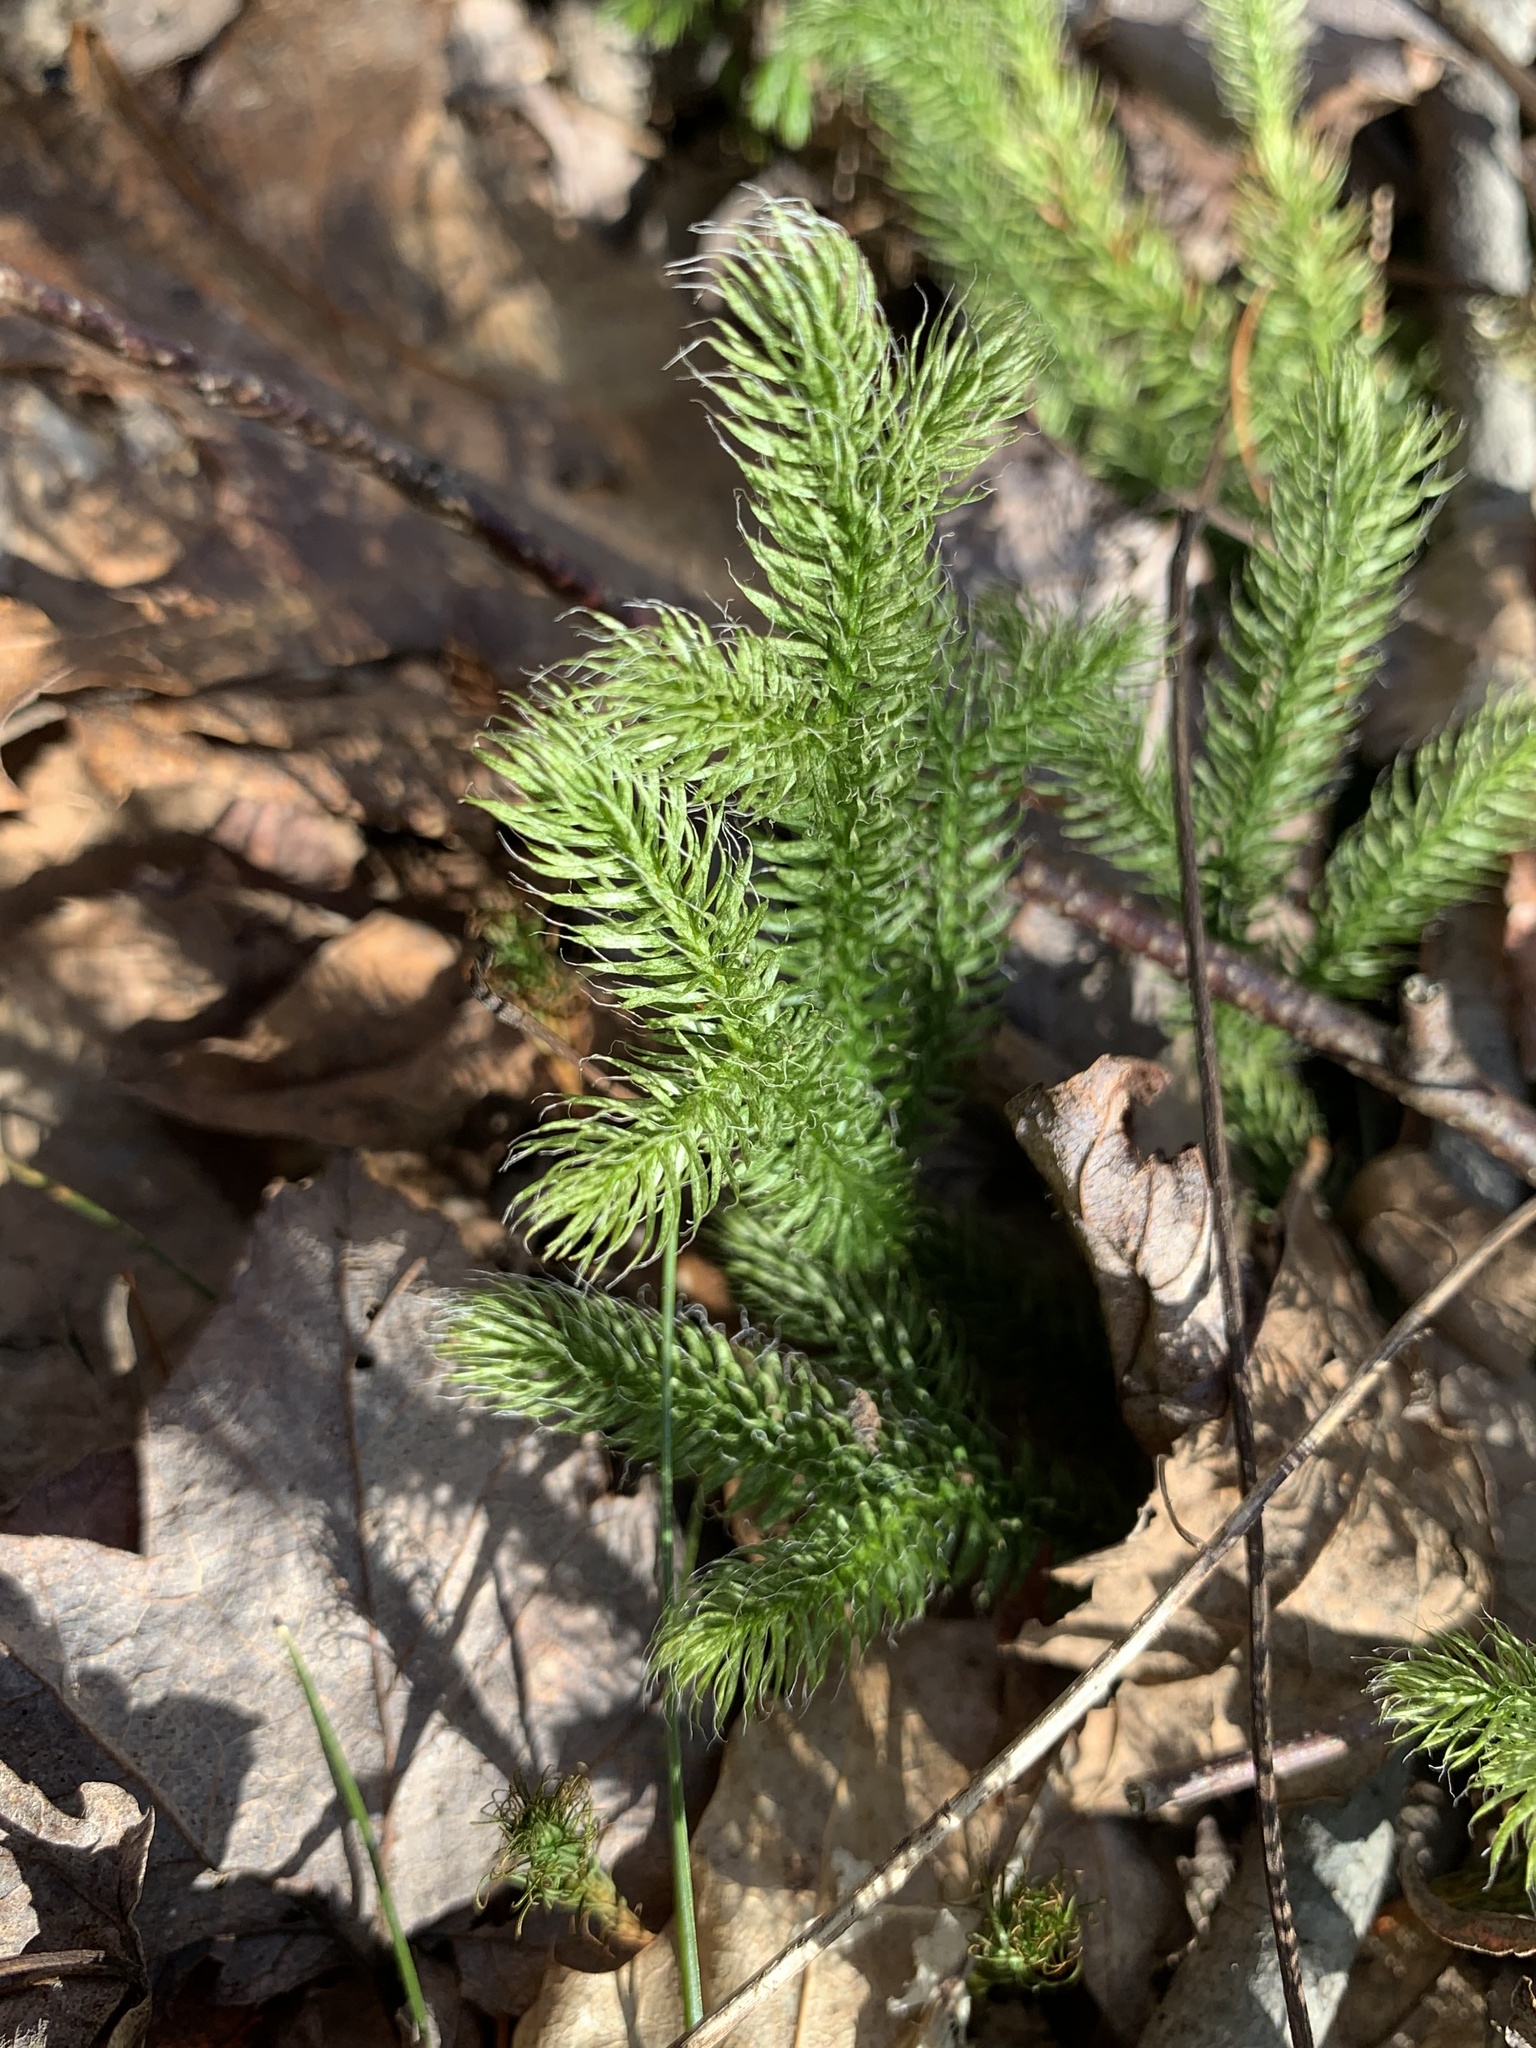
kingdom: Plantae
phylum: Tracheophyta
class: Lycopodiopsida
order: Lycopodiales
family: Lycopodiaceae
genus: Lycopodium
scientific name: Lycopodium clavatum
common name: Stag's-horn clubmoss
